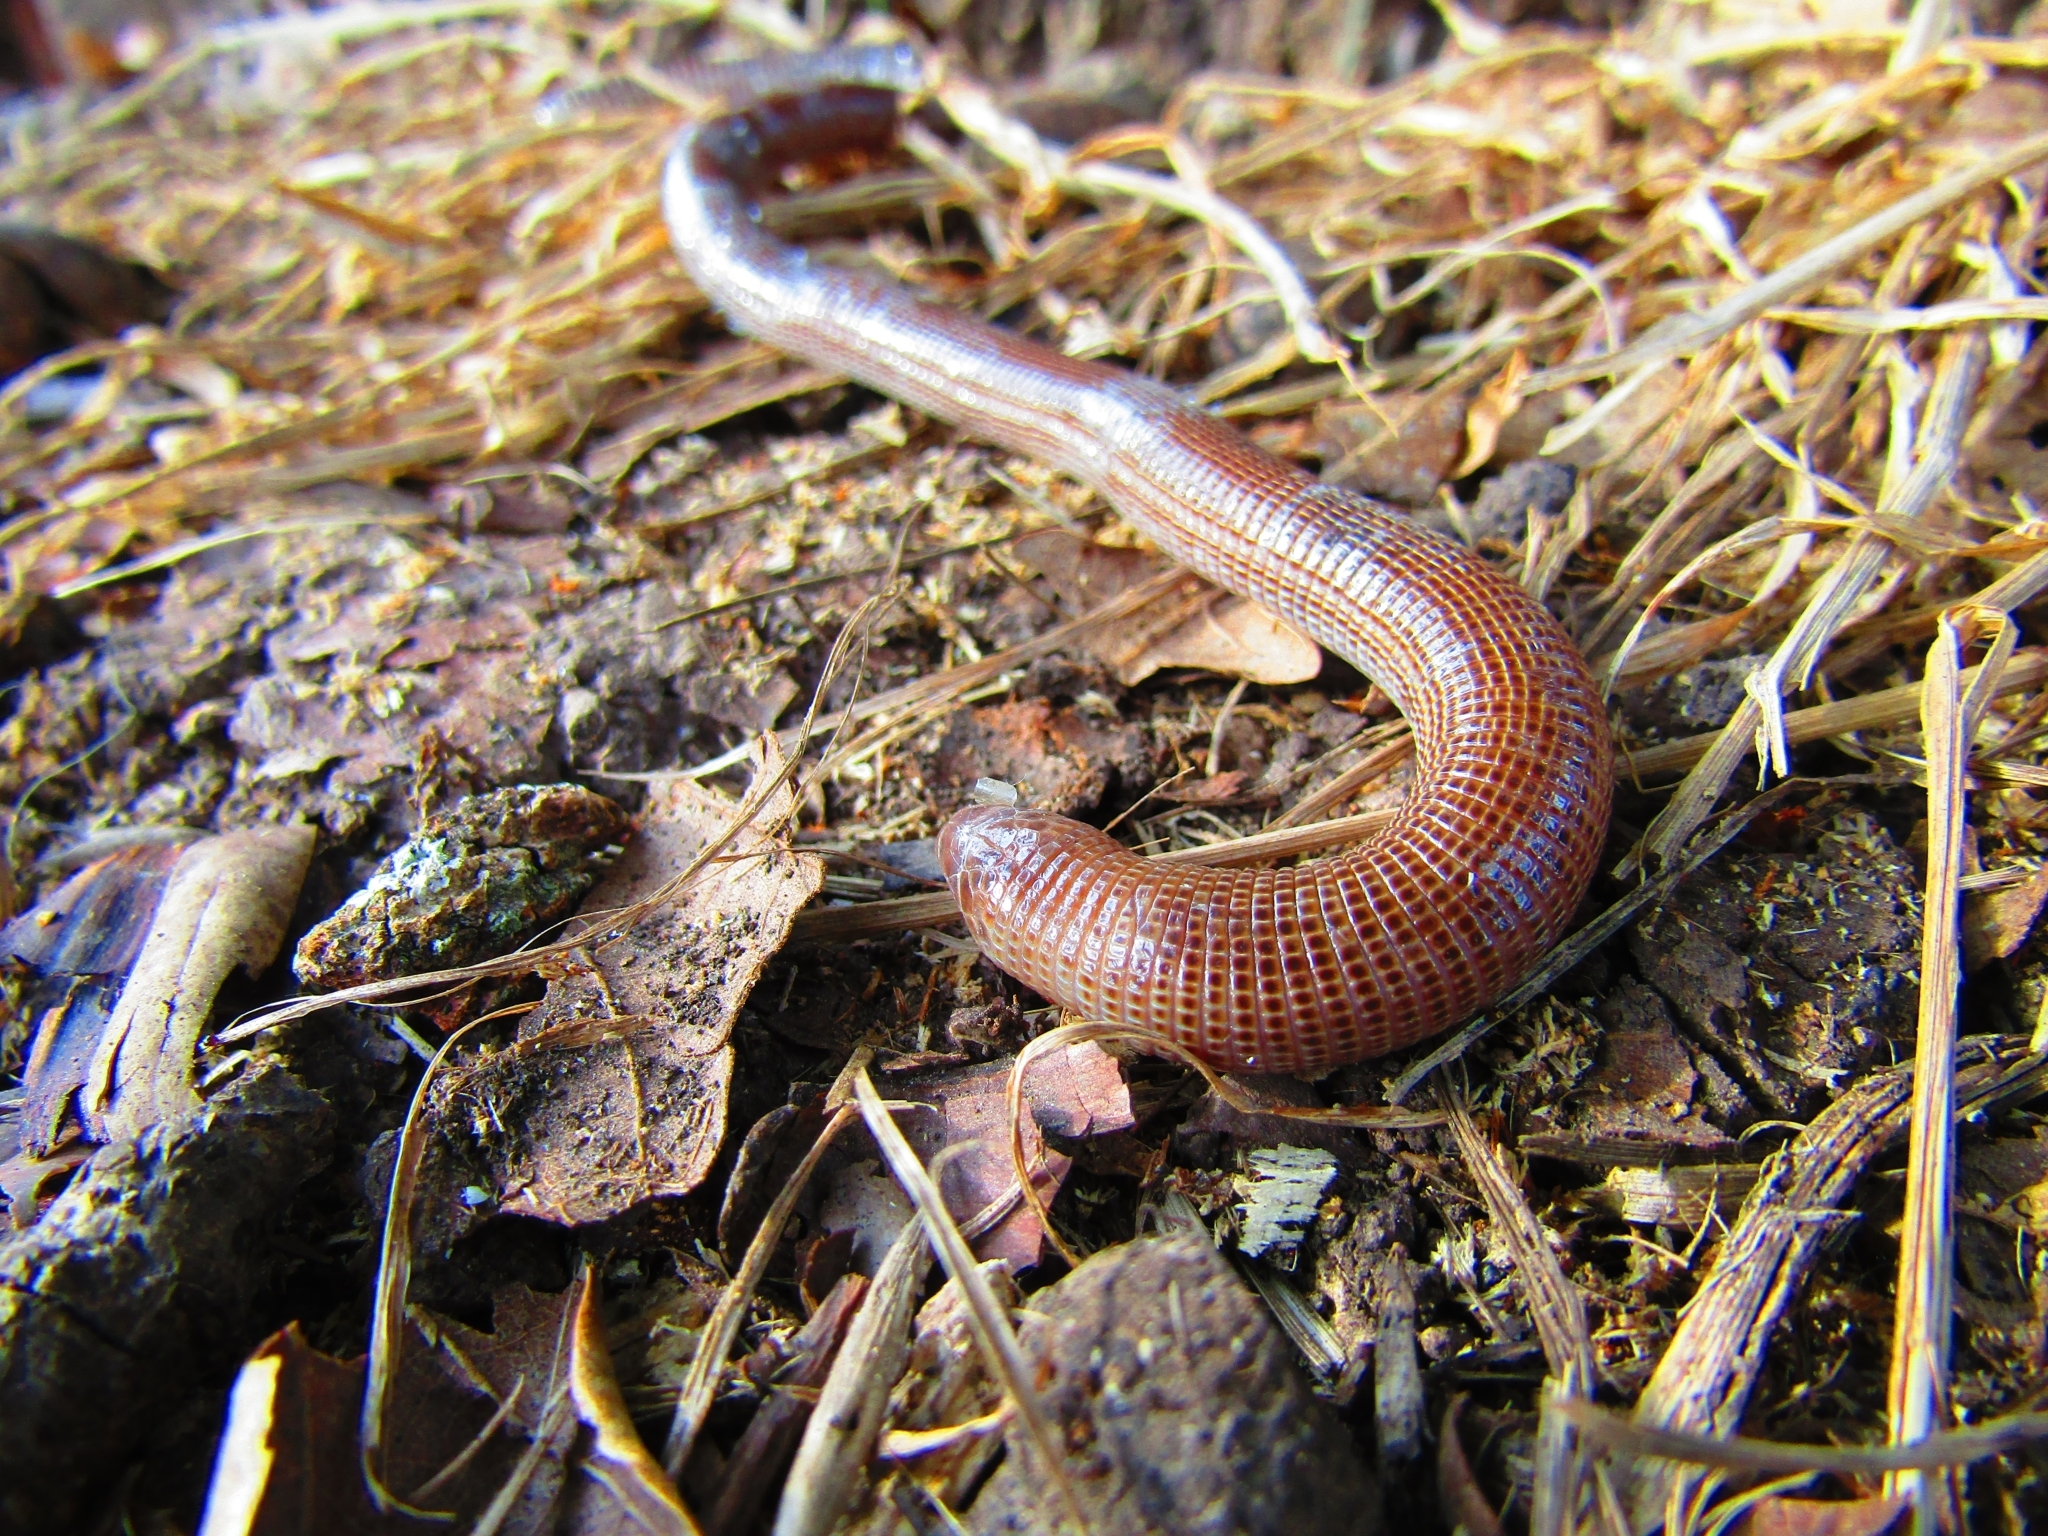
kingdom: Animalia
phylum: Chordata
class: Squamata
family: Amphisbaenidae
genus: Amphisbaena
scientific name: Amphisbaena darwinii
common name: Darwin's ringed worm lizard
